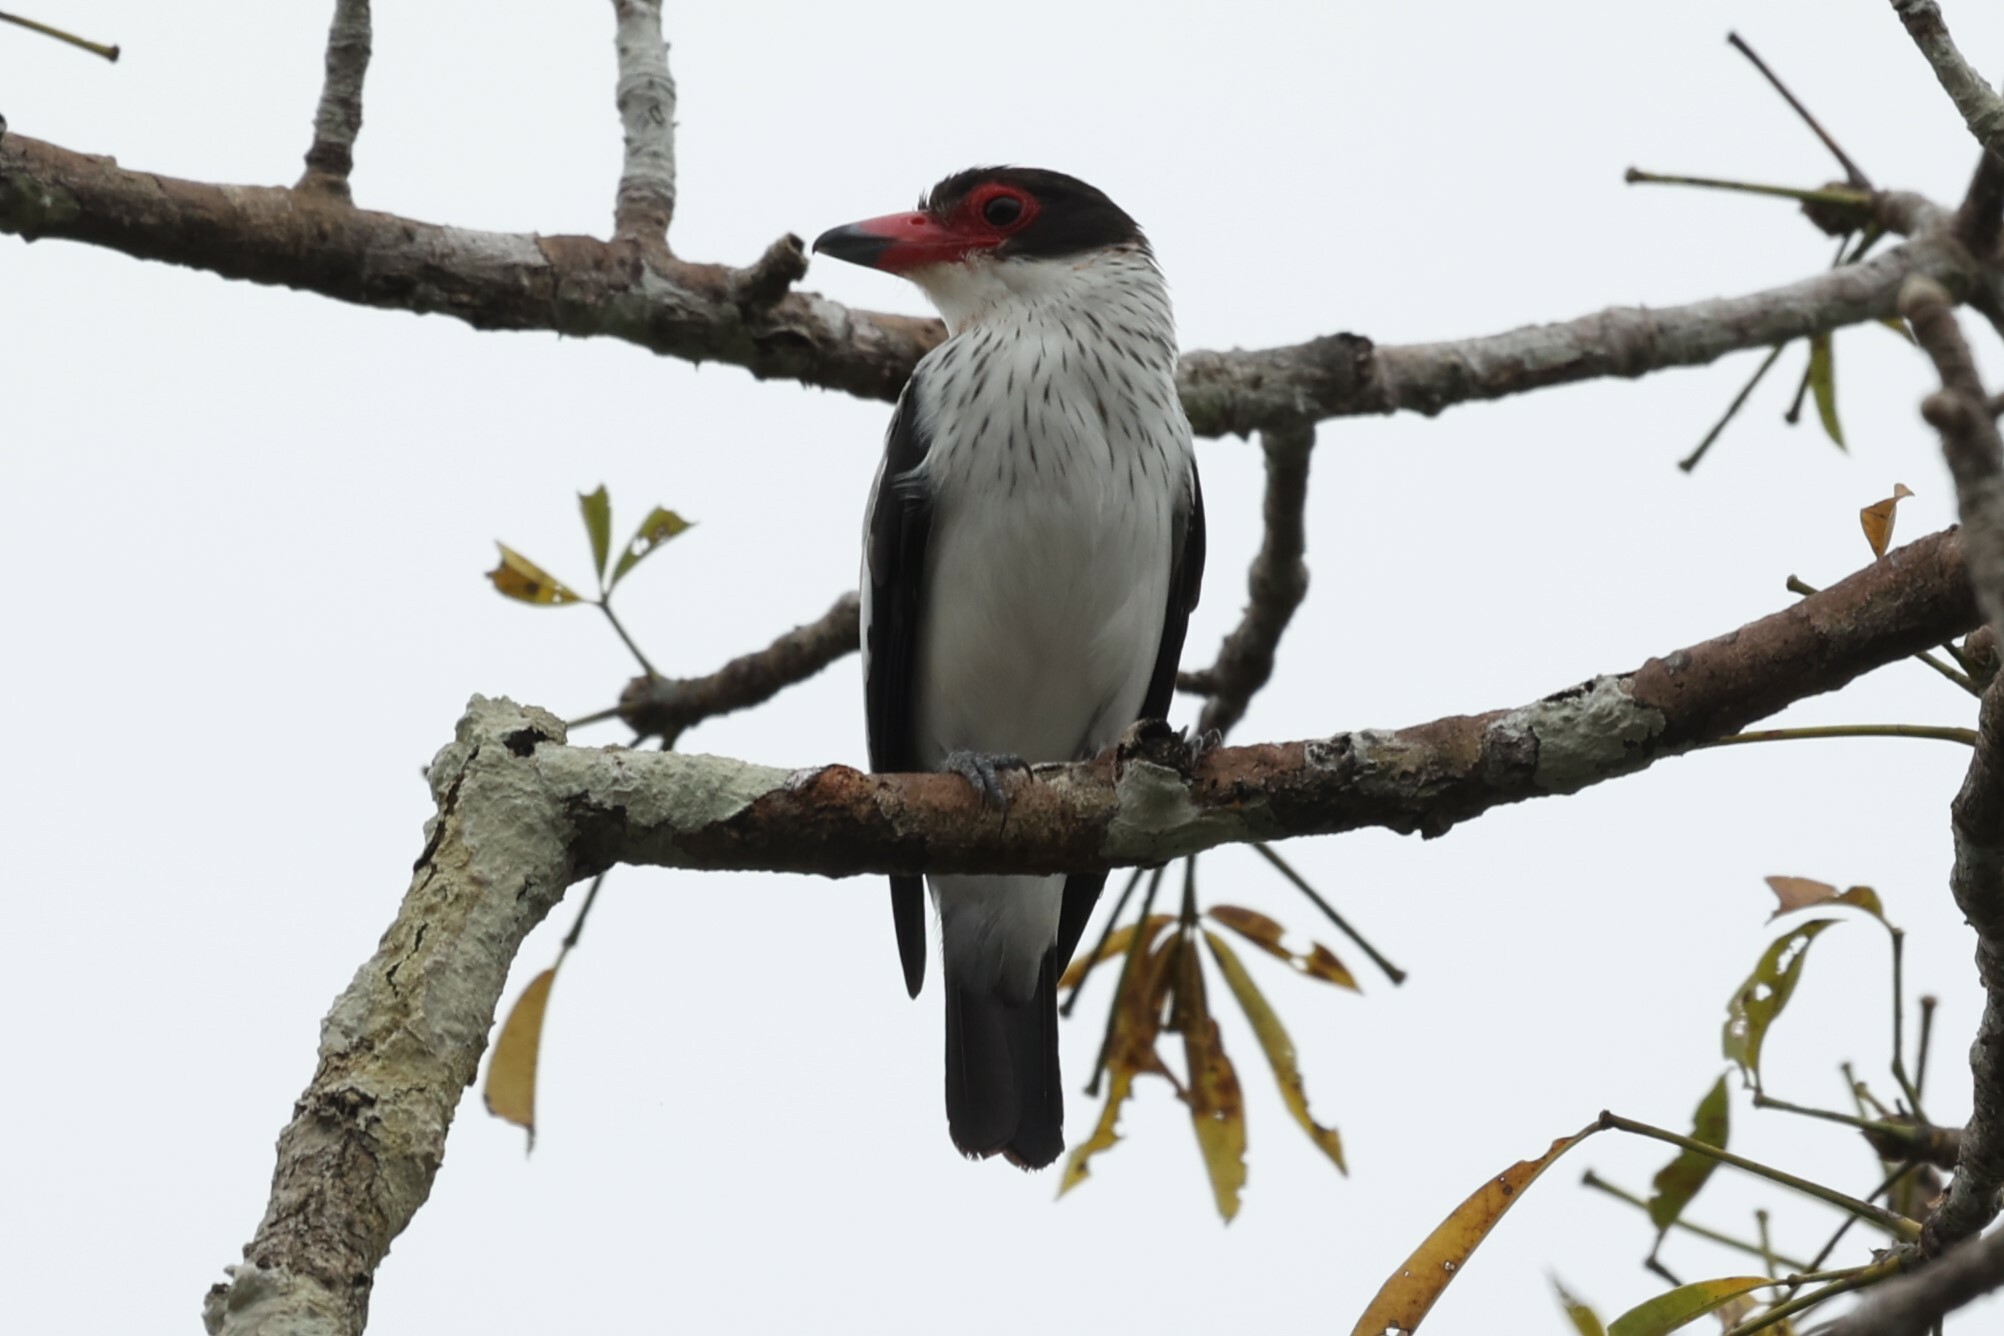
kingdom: Animalia
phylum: Chordata
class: Aves
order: Passeriformes
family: Cotingidae
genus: Tityra
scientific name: Tityra cayana
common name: Black-tailed tityra
